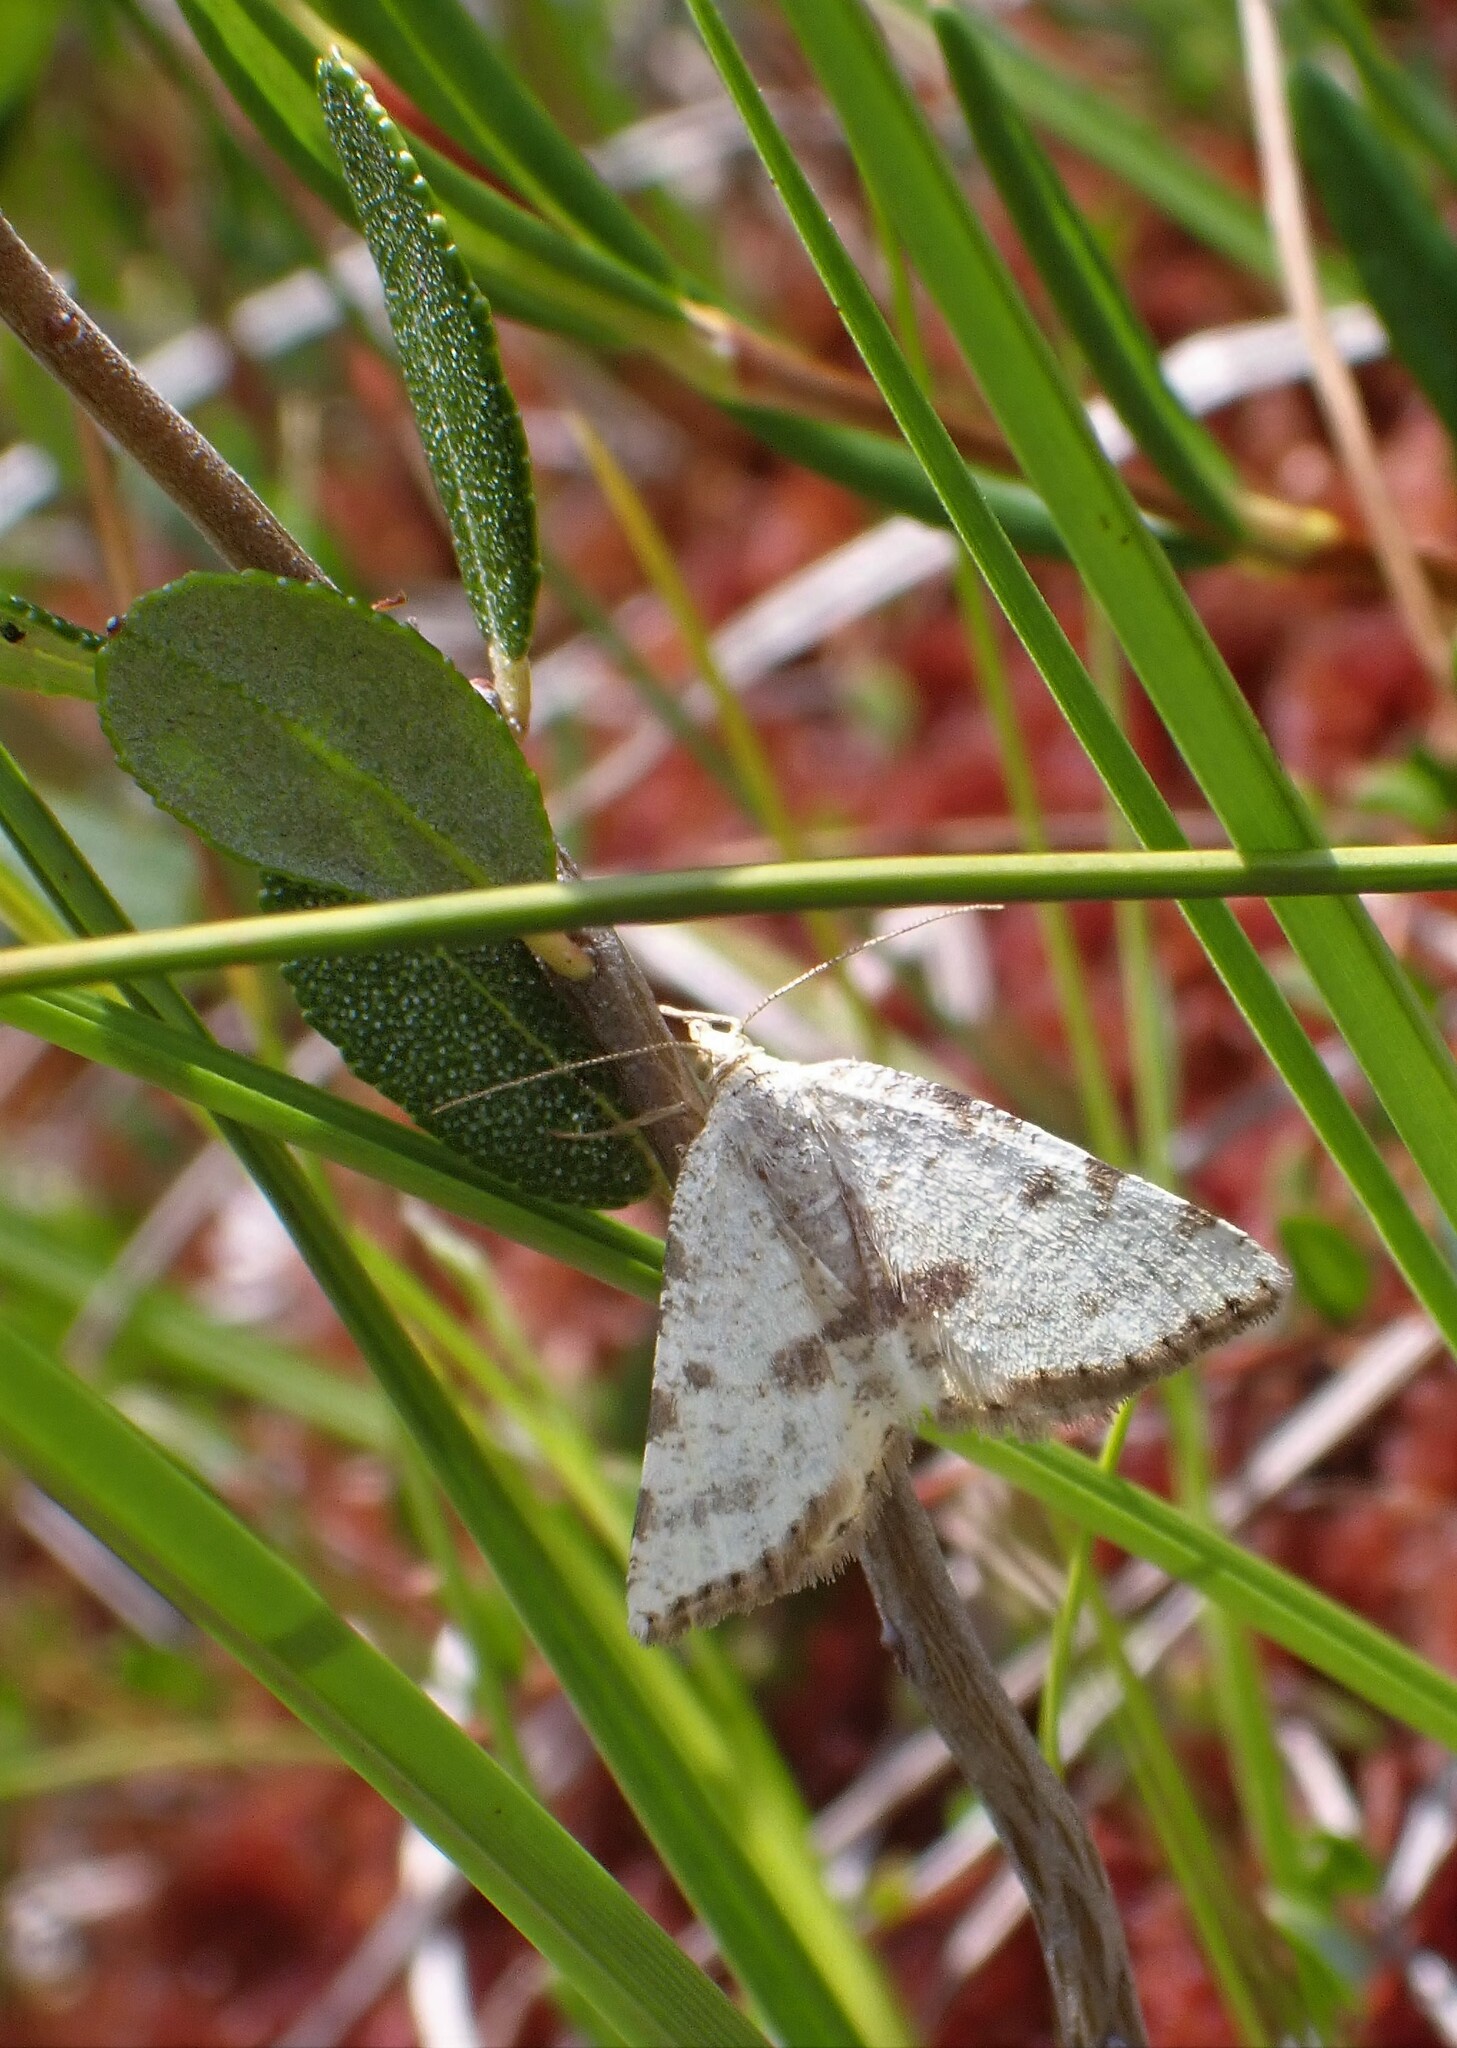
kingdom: Animalia
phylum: Arthropoda
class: Insecta
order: Lepidoptera
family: Geometridae
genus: Macaria
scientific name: Macaria sulphurea
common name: Sulphur angle
